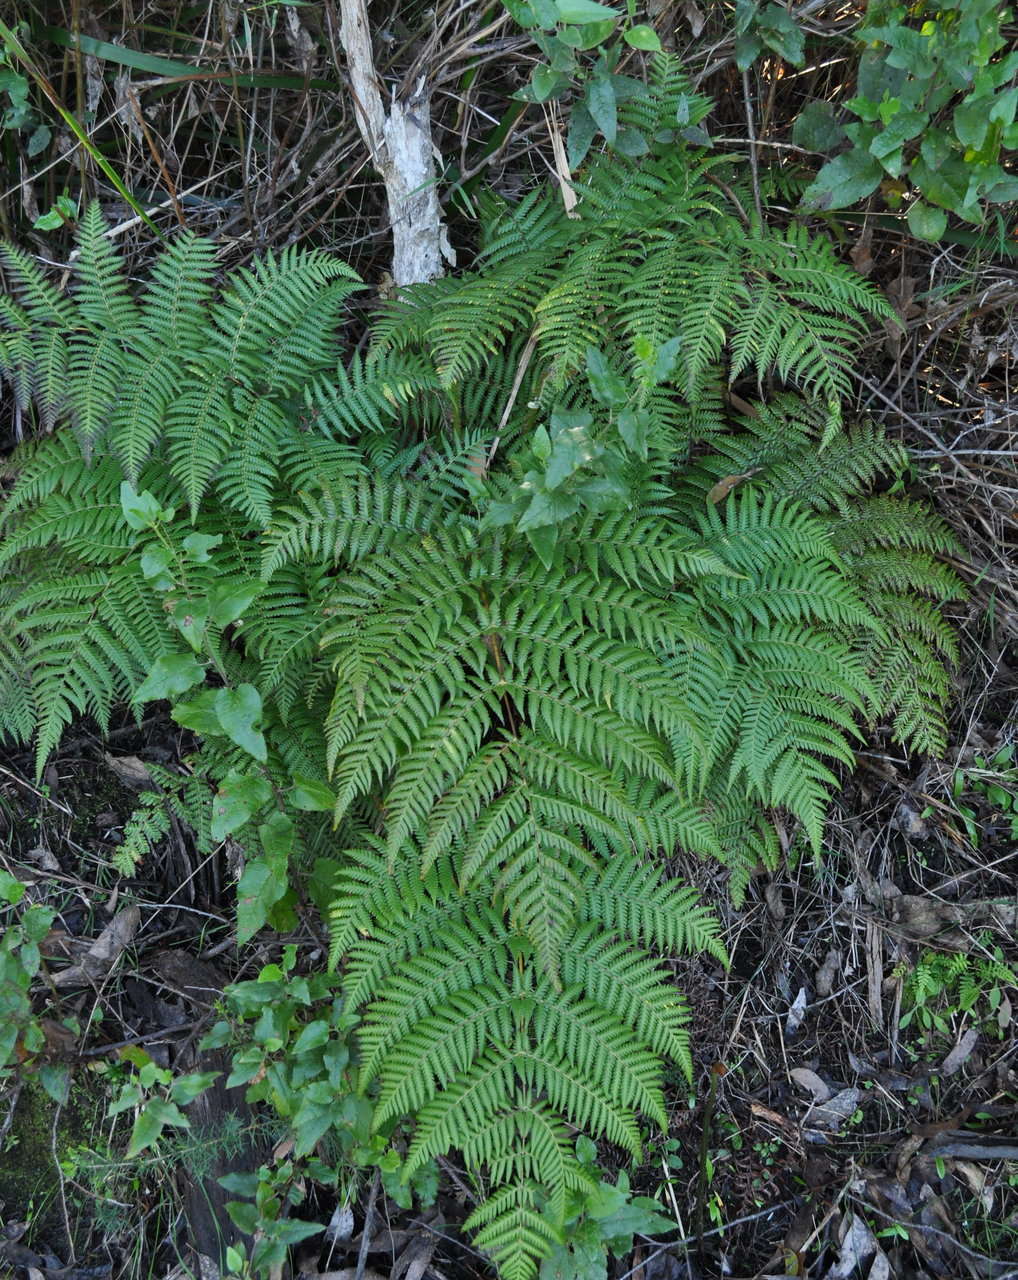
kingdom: Plantae
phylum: Tracheophyta
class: Polypodiopsida
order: Cyatheales
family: Cyatheaceae
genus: Alsophila
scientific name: Alsophila australis
